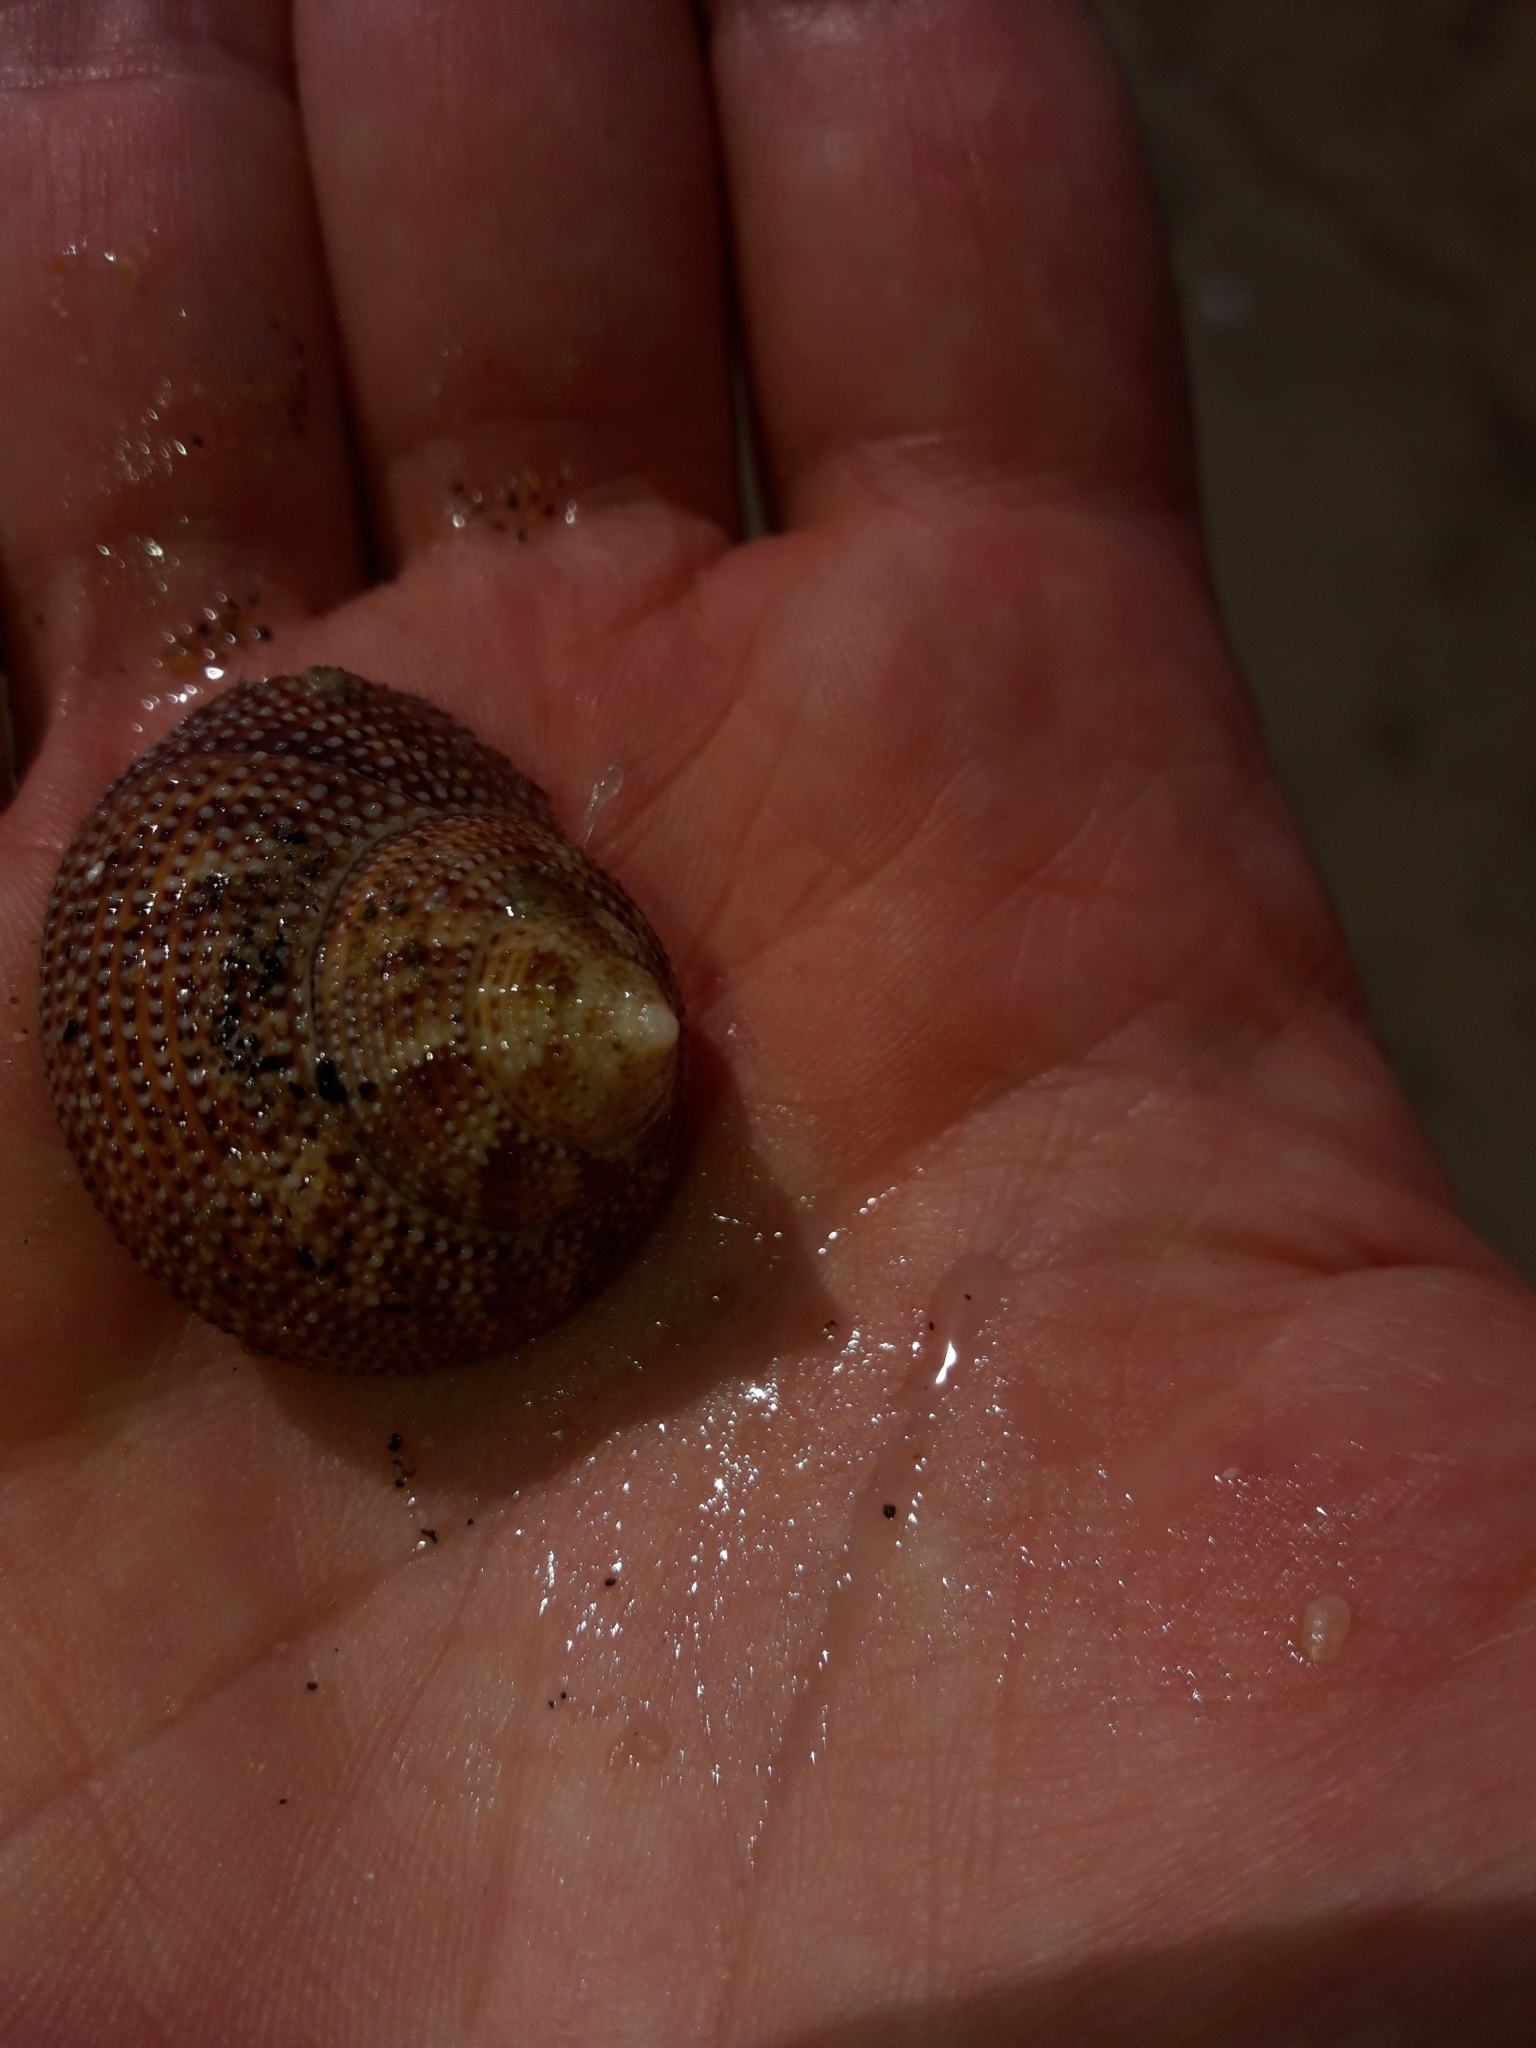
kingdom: Animalia
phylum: Mollusca
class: Gastropoda
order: Trochida
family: Calliostomatidae
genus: Maurea
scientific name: Maurea punctulata
